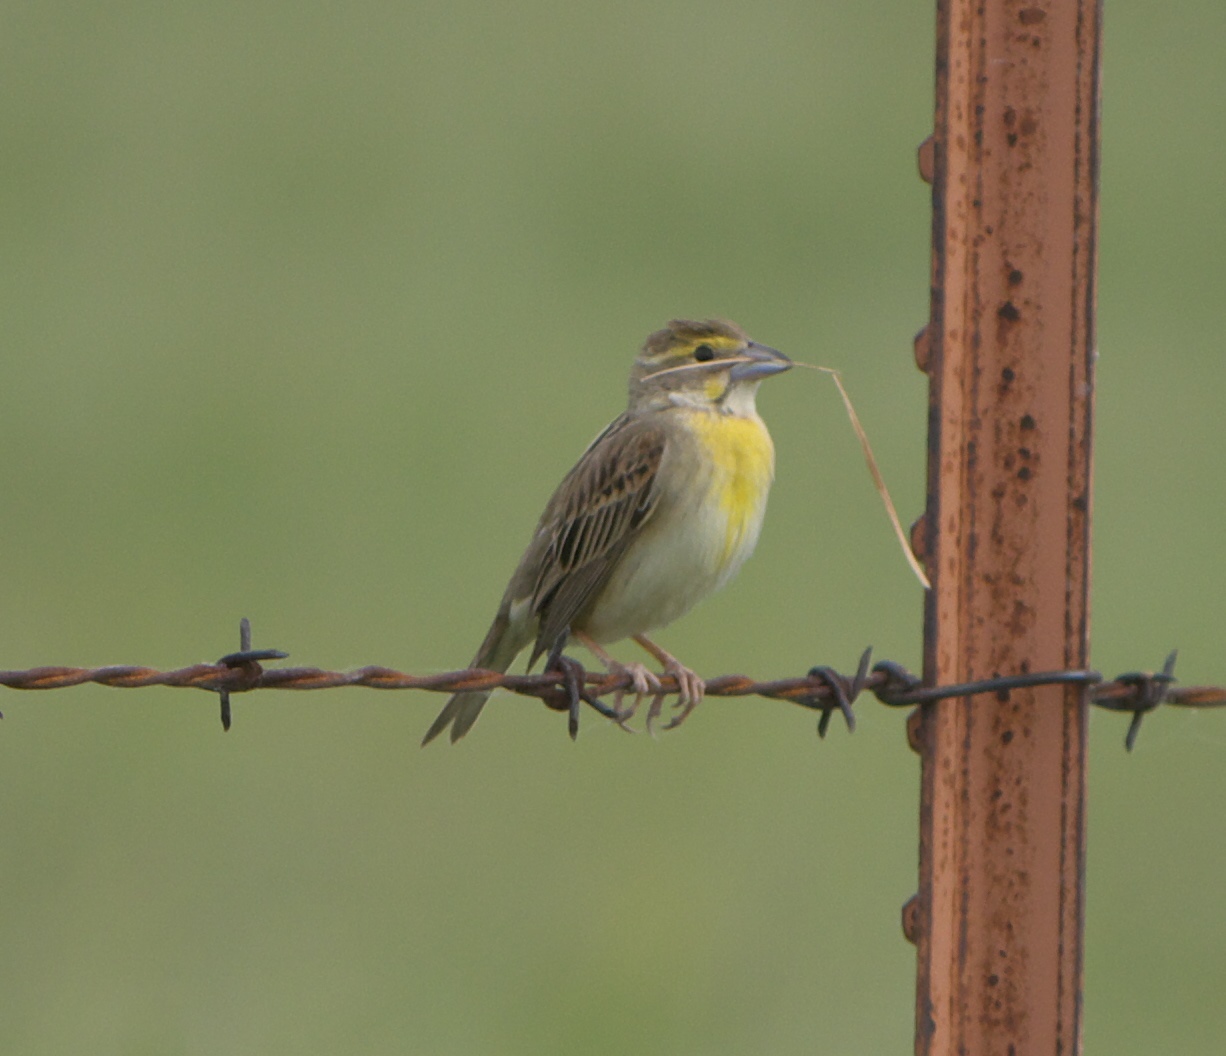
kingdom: Animalia
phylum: Chordata
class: Aves
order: Passeriformes
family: Cardinalidae
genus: Spiza
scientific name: Spiza americana
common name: Dickcissel
